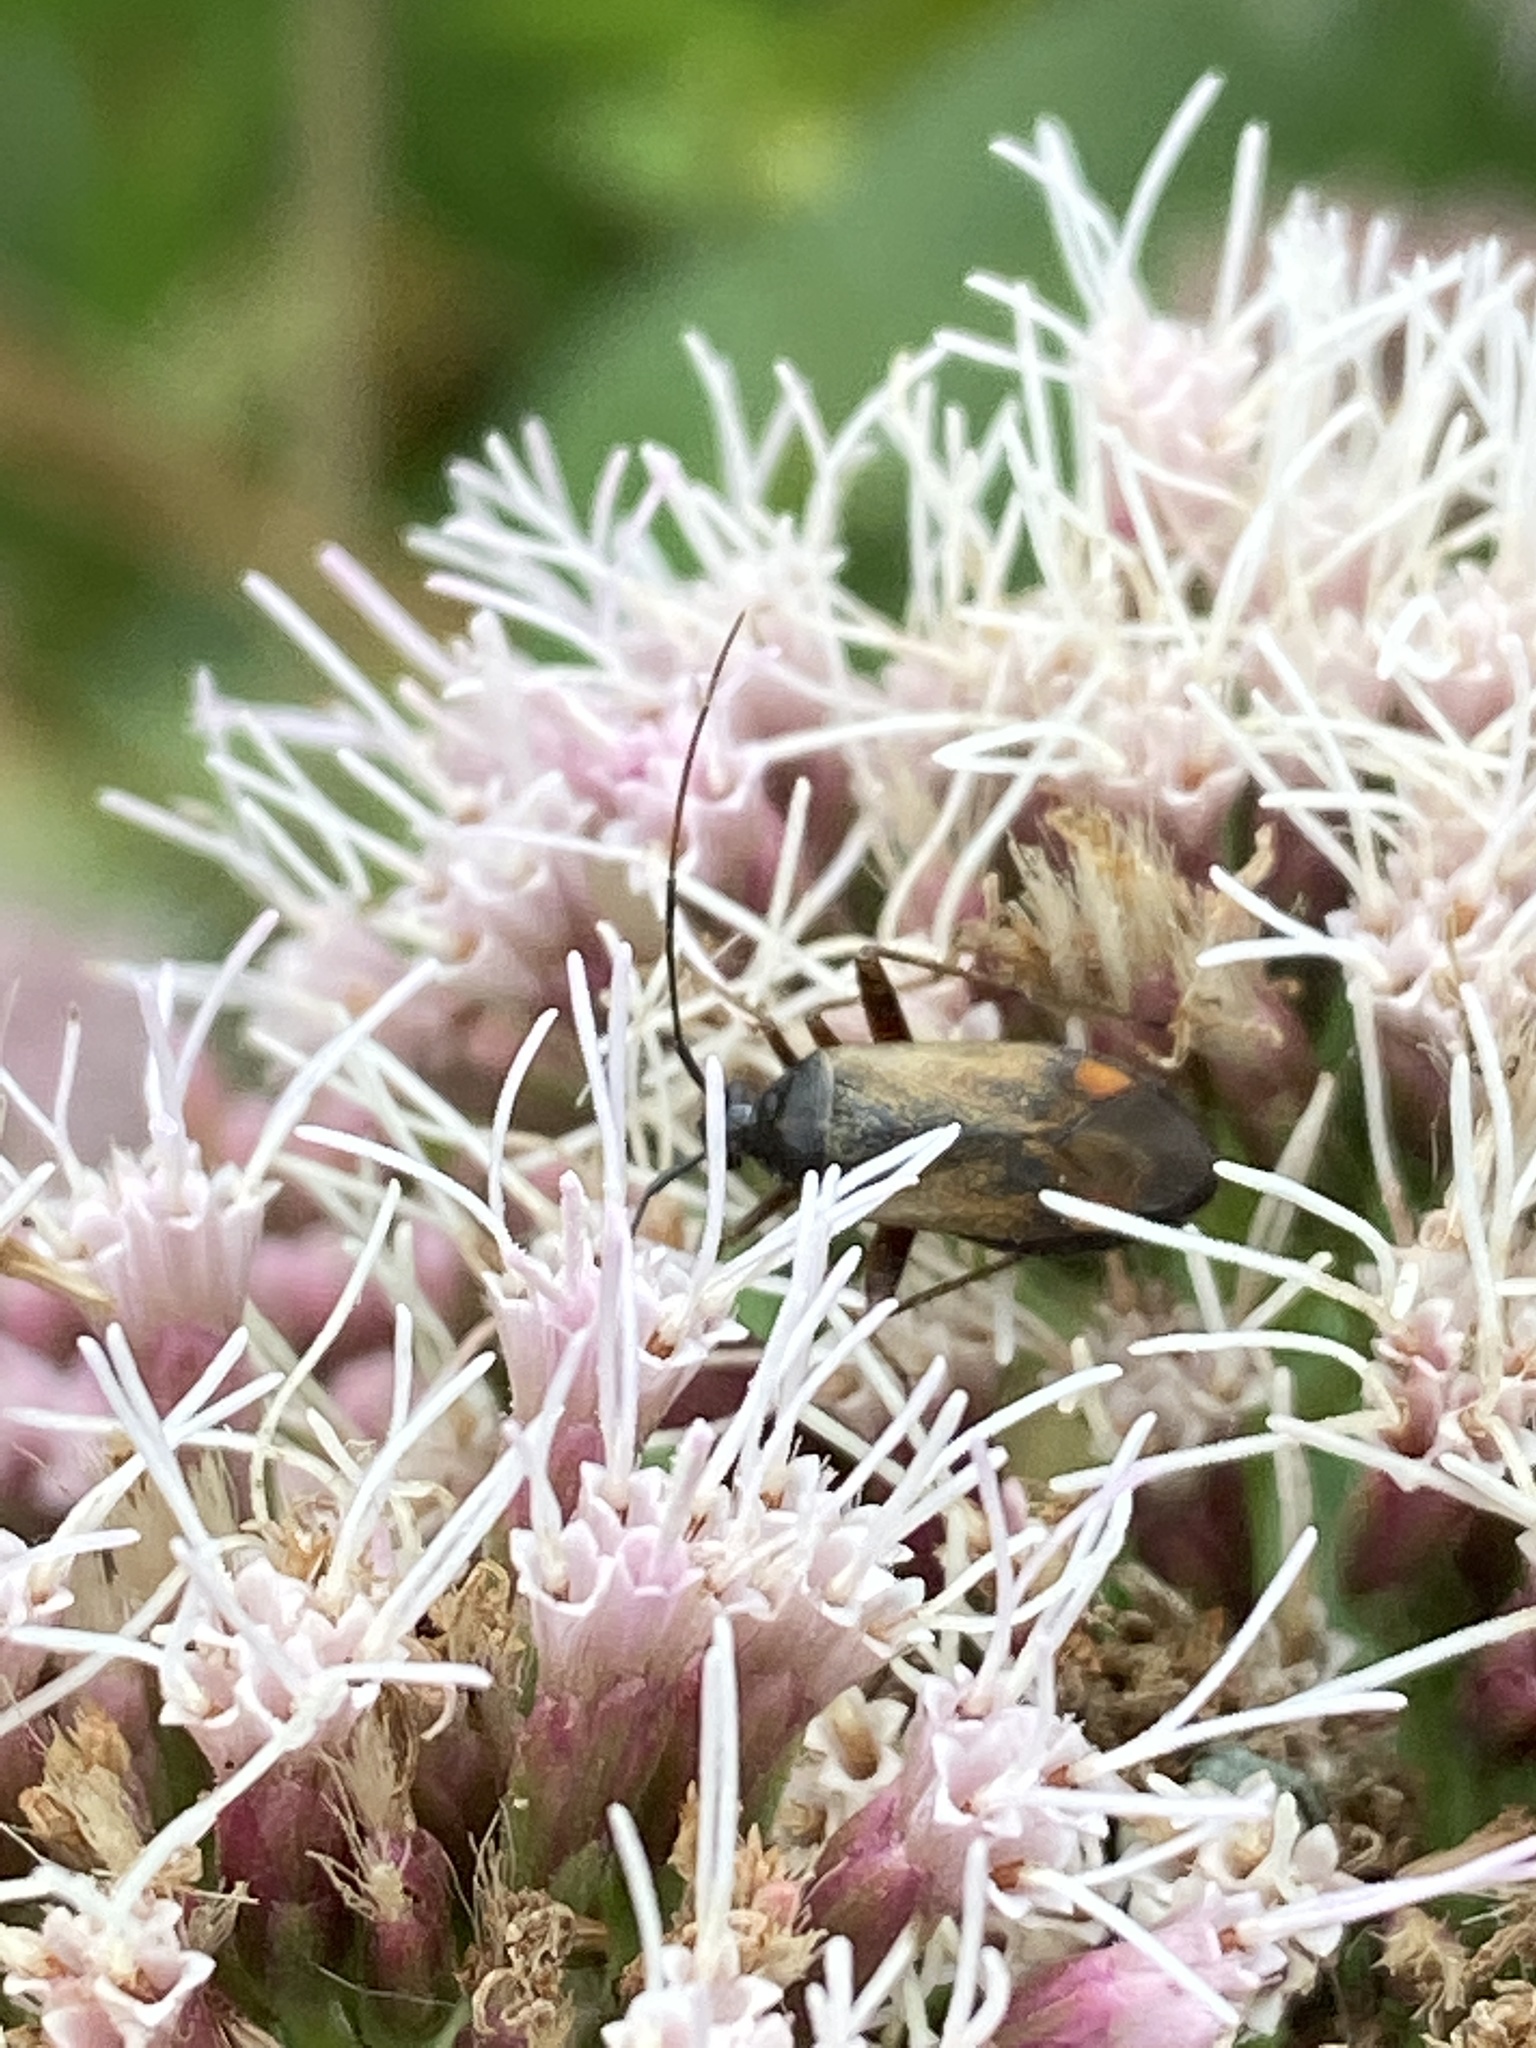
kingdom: Animalia
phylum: Arthropoda
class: Insecta
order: Hemiptera
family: Miridae
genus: Adelphocoris
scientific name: Adelphocoris seticornis
